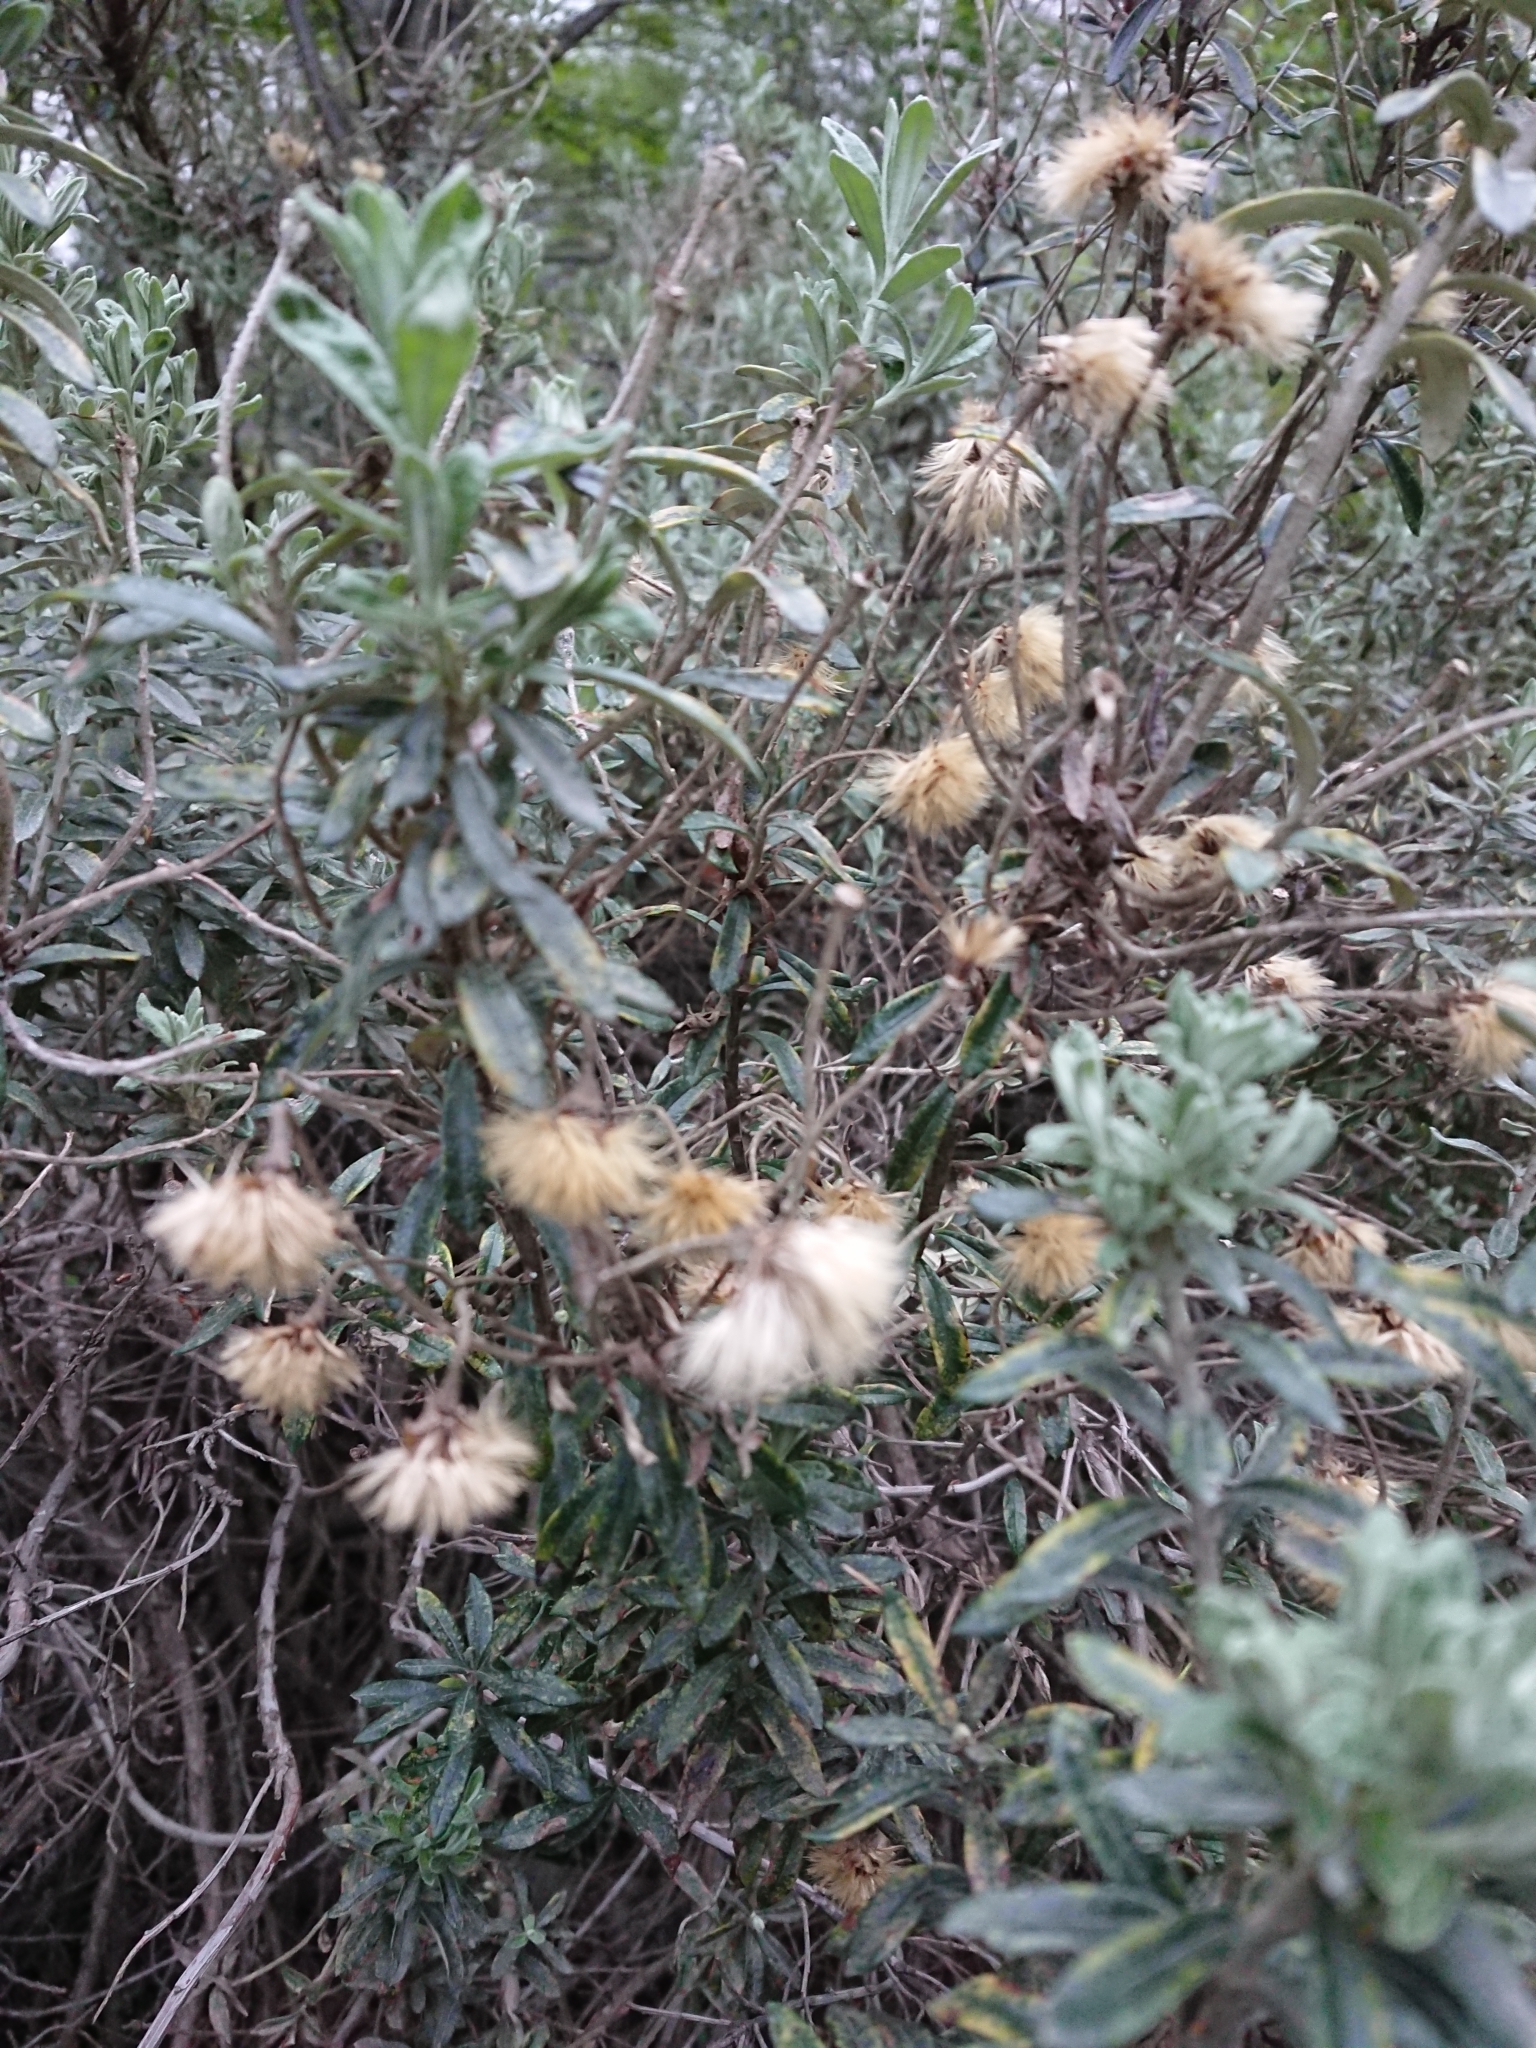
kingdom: Plantae
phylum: Tracheophyta
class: Magnoliopsida
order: Asterales
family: Asteraceae
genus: Chiliotrichum
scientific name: Chiliotrichum diffusum
